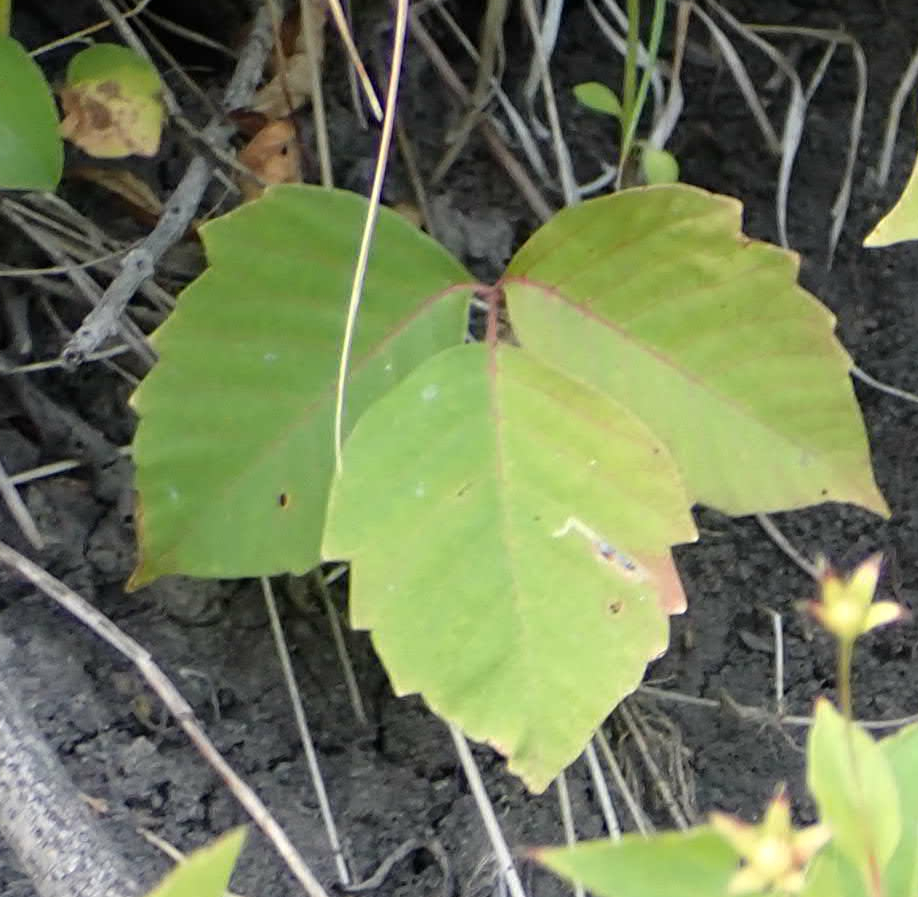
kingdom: Plantae
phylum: Tracheophyta
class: Magnoliopsida
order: Sapindales
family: Anacardiaceae
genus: Toxicodendron
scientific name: Toxicodendron rydbergii
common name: Rydberg's poison-ivy
